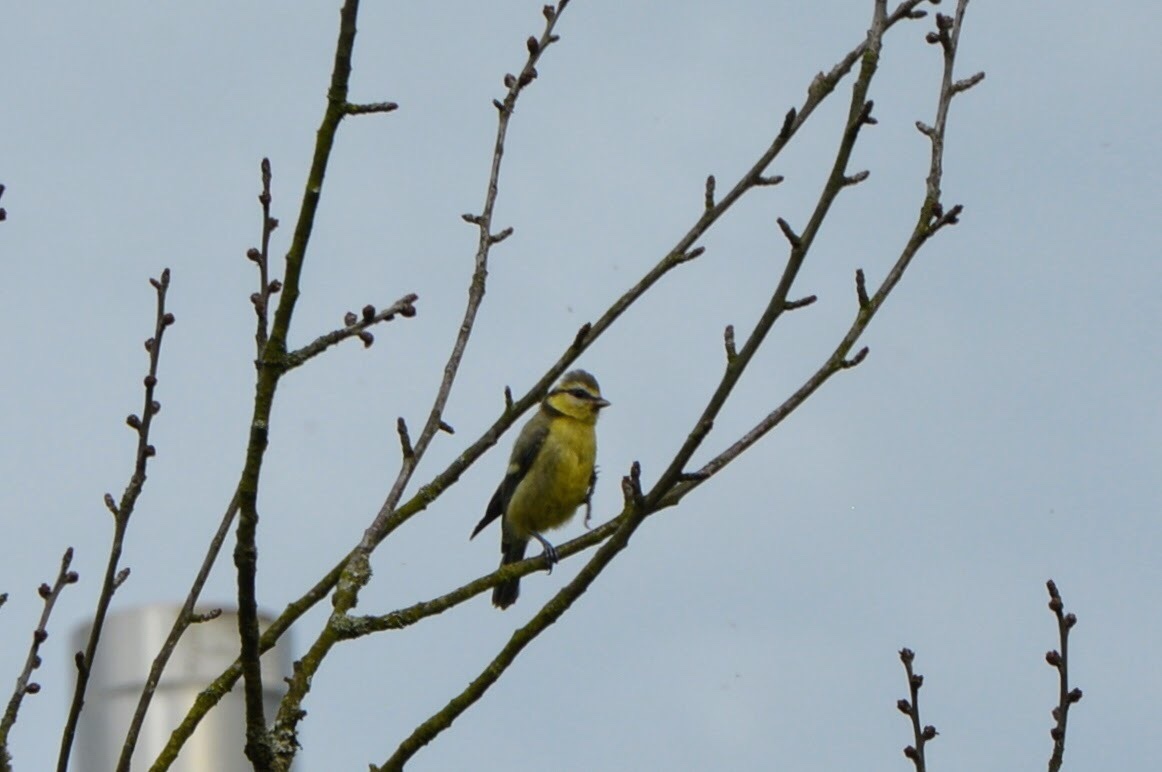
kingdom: Animalia
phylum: Chordata
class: Aves
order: Passeriformes
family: Paridae
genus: Cyanistes
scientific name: Cyanistes caeruleus
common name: Eurasian blue tit
